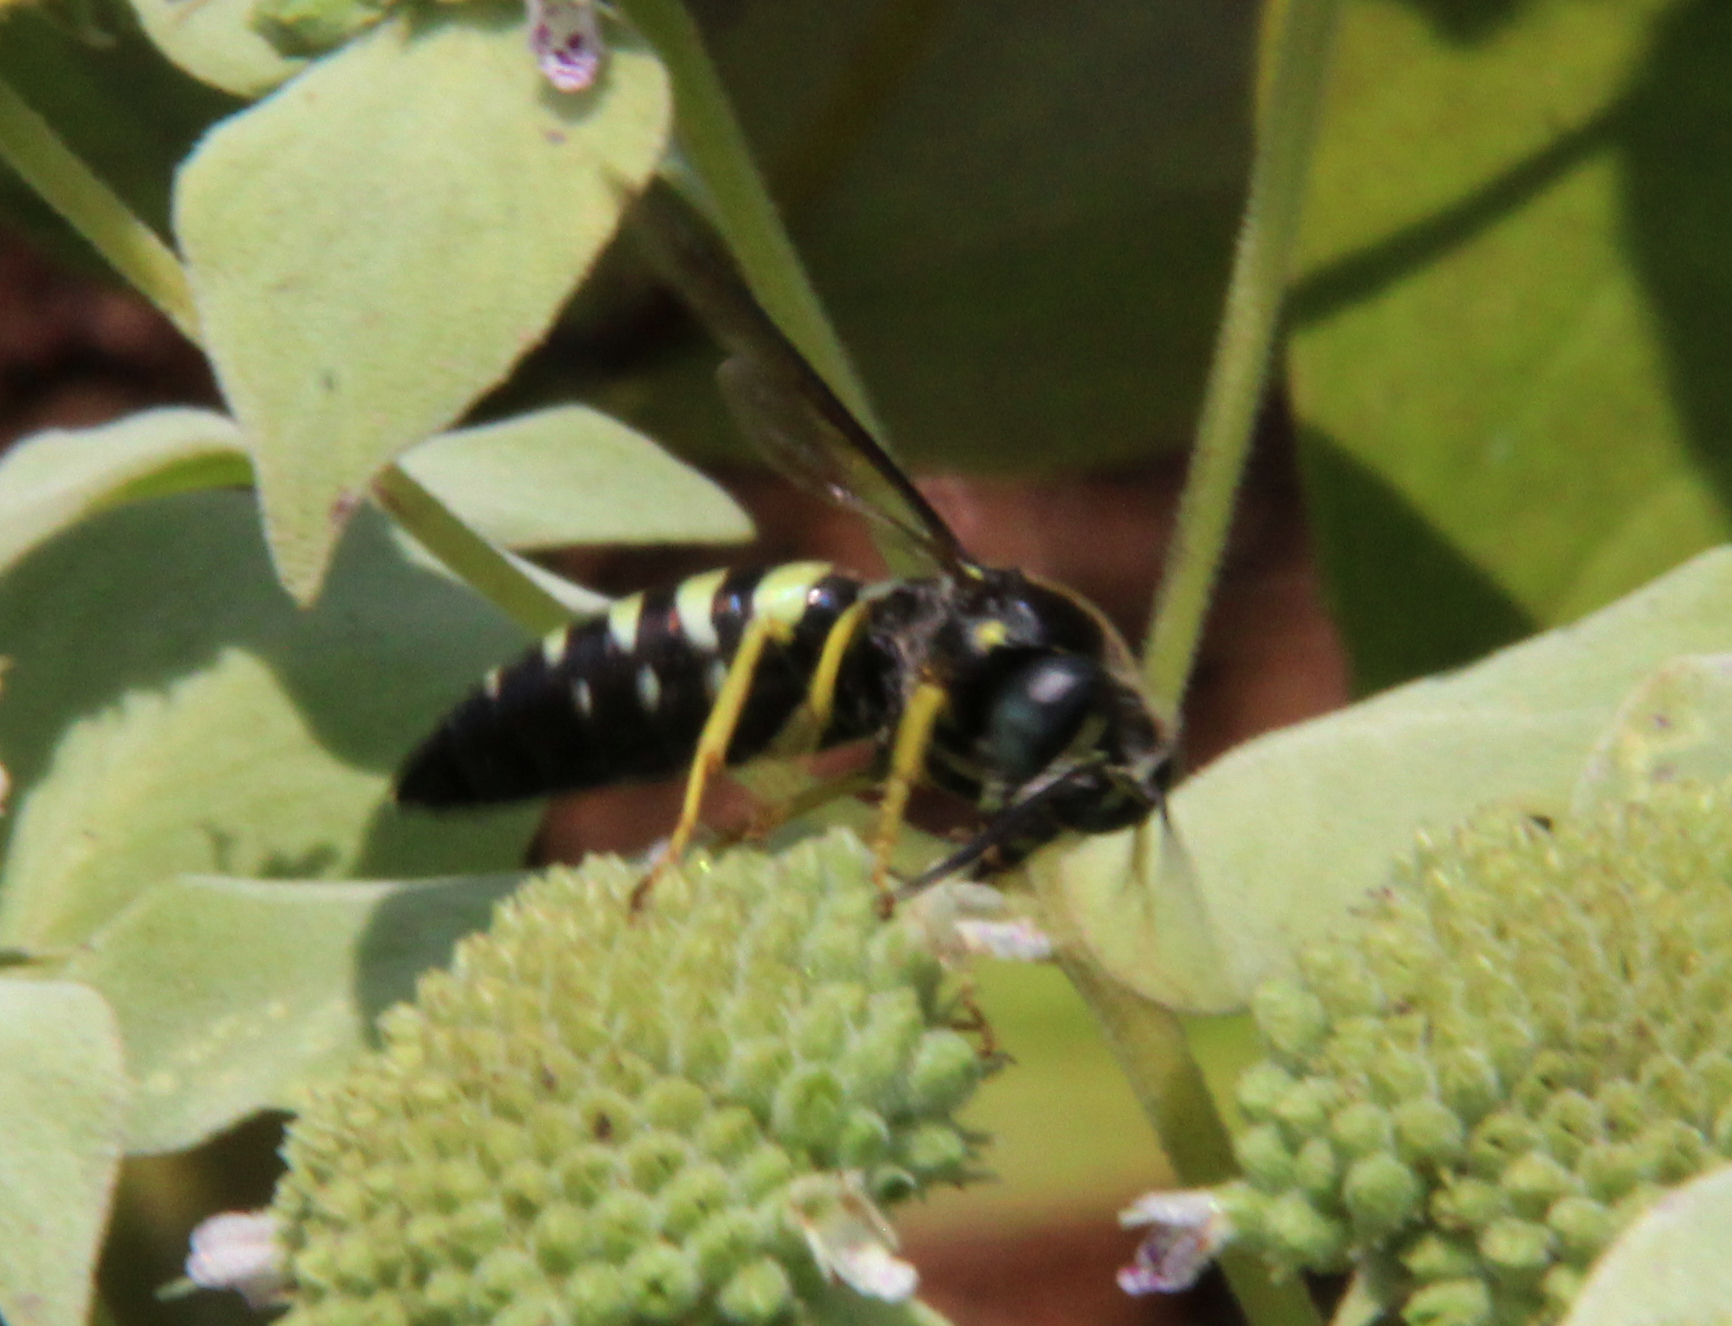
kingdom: Animalia
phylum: Arthropoda
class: Insecta
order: Hymenoptera
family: Crabronidae
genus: Bicyrtes
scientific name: Bicyrtes quadrifasciatus
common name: Four-banded stink bug hunter wasp
